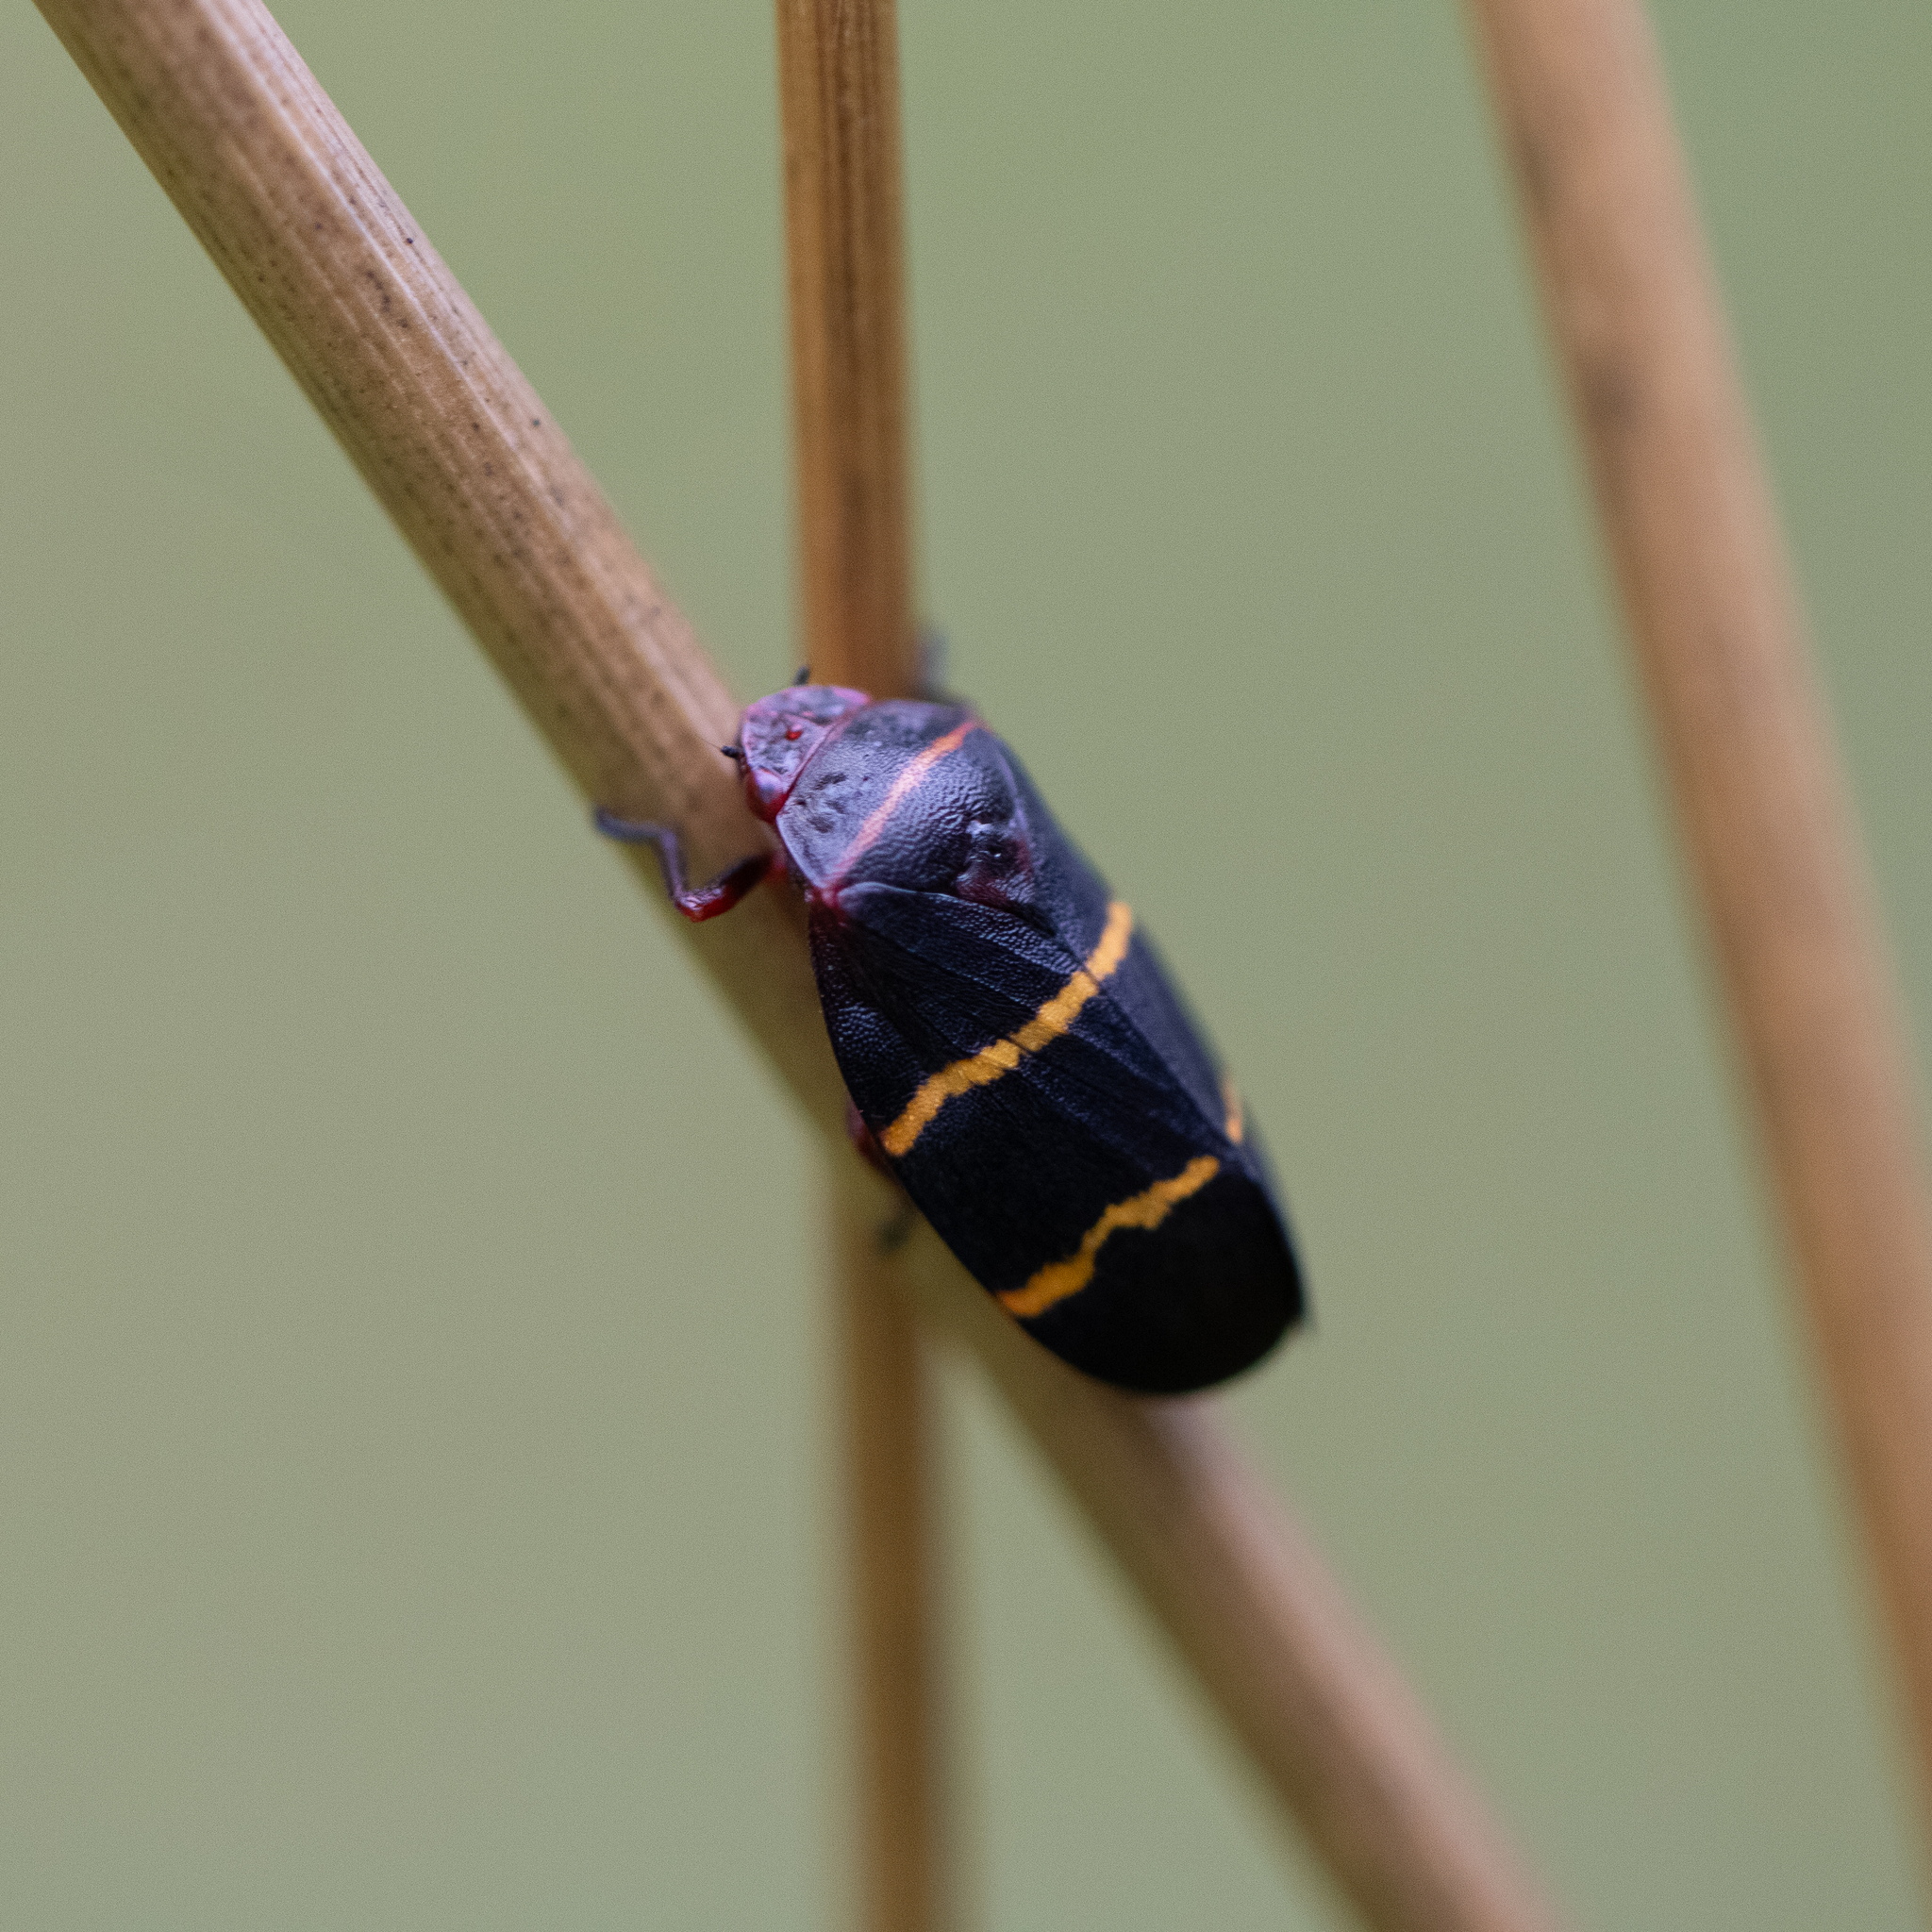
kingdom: Animalia
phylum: Arthropoda
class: Insecta
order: Hemiptera
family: Cercopidae
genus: Prosapia
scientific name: Prosapia bicincta
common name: Twolined spittlebug
